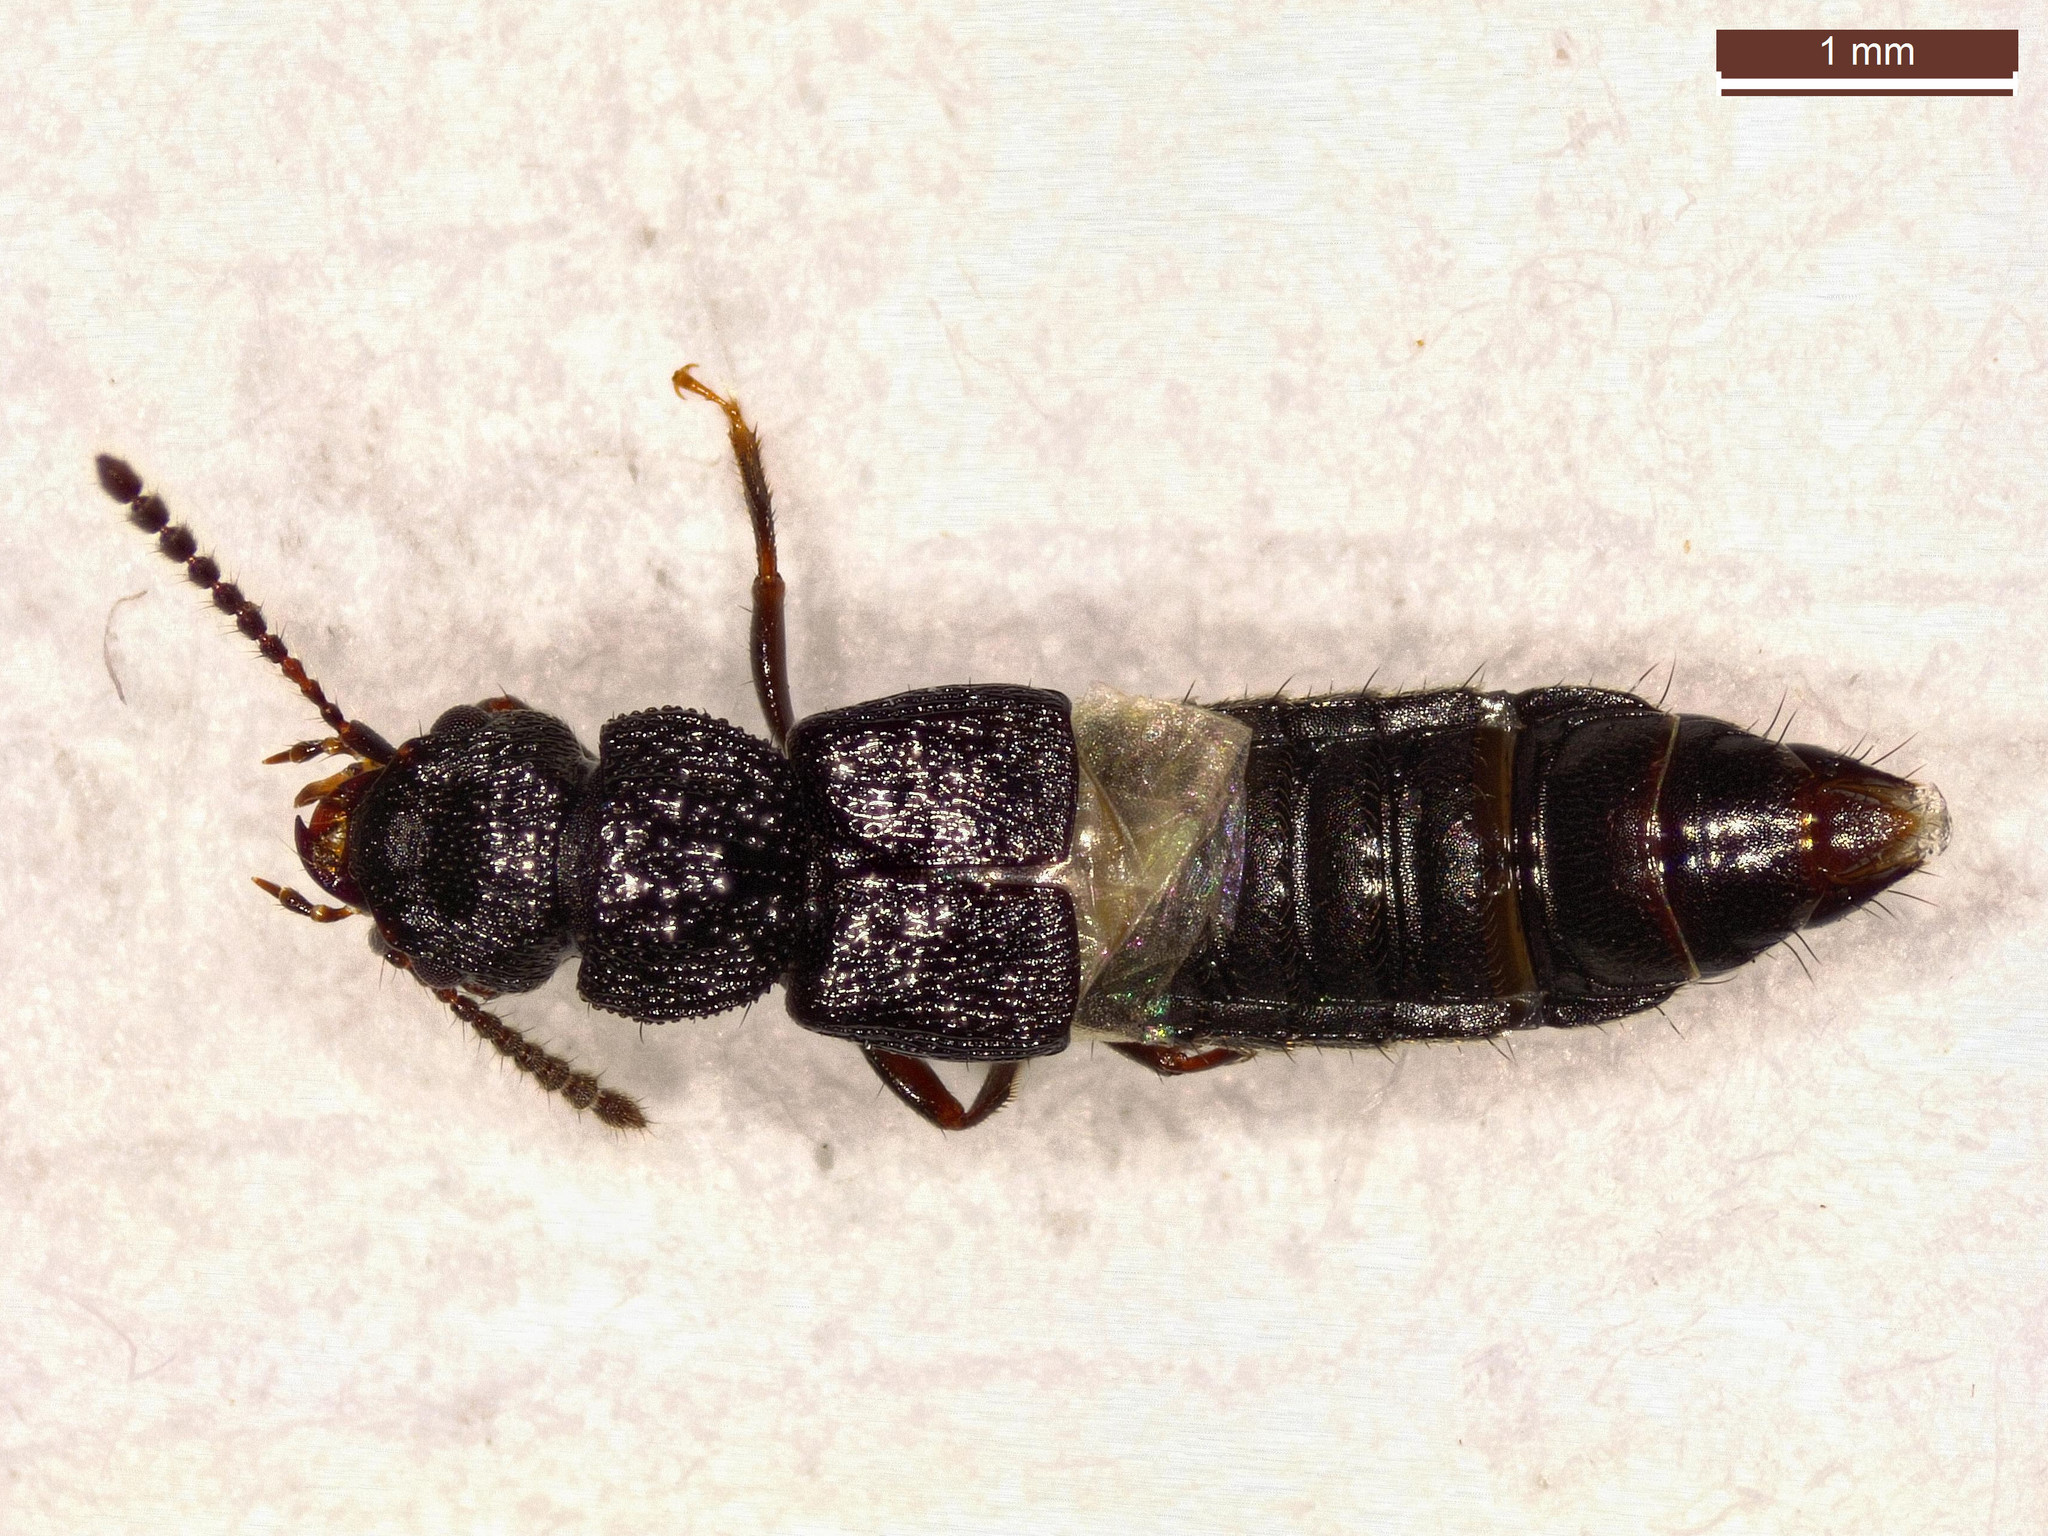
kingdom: Animalia
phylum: Arthropoda
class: Insecta
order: Coleoptera
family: Staphylinidae
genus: Anotylus
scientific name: Anotylus rugosus
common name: Rove beetle
